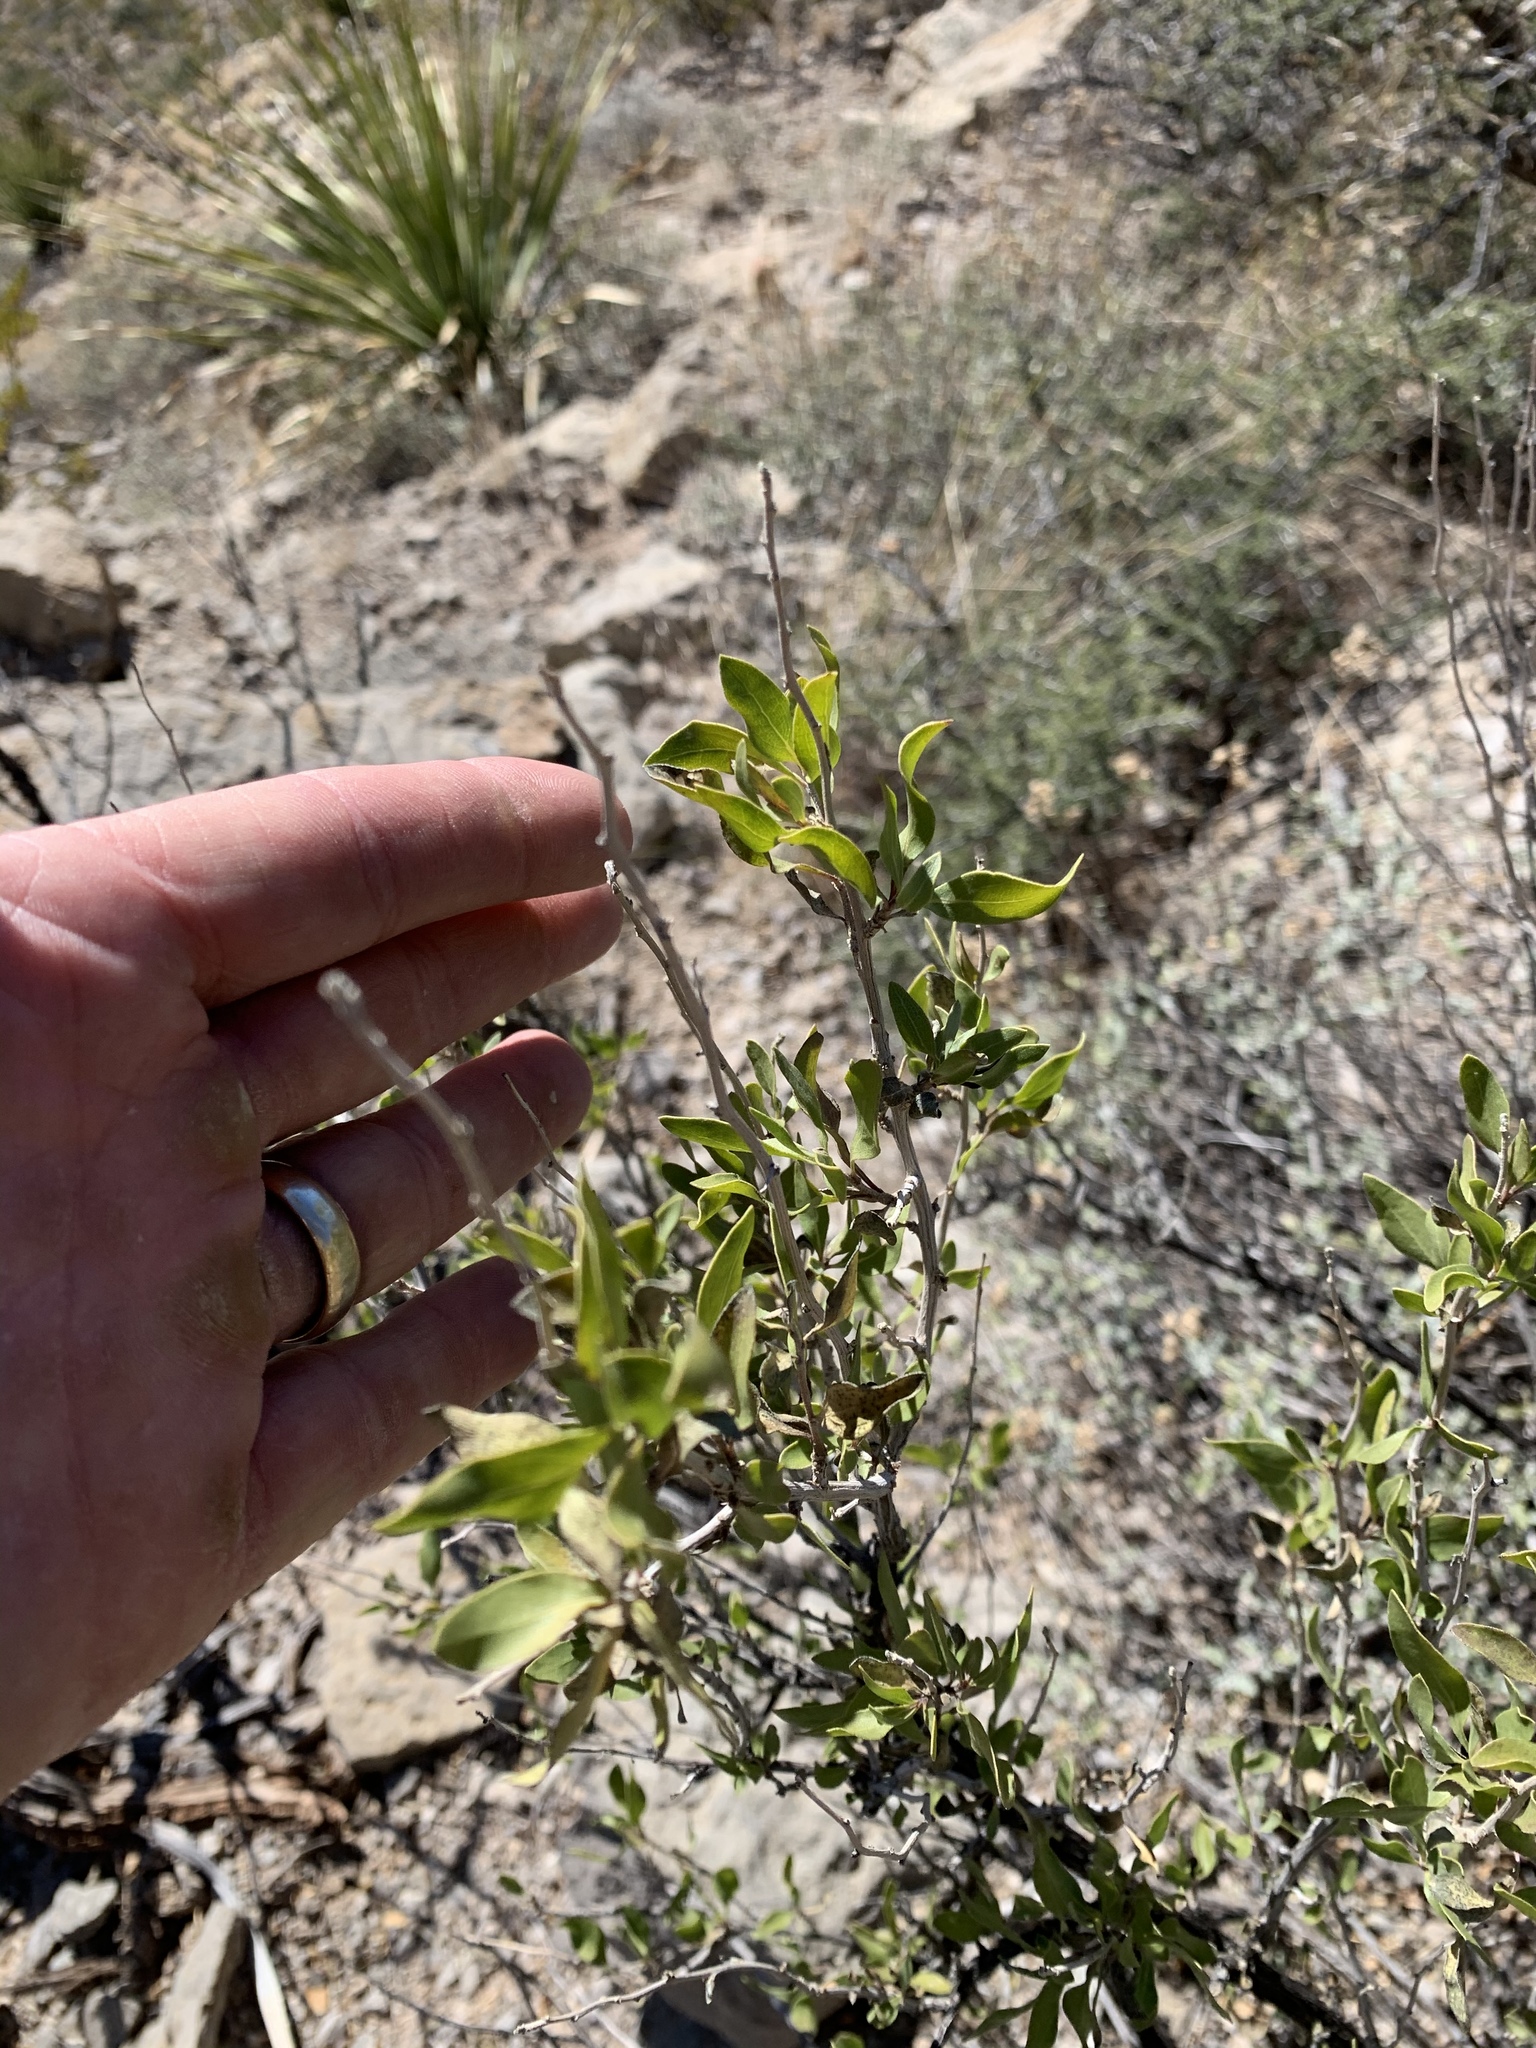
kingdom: Plantae
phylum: Tracheophyta
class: Magnoliopsida
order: Asterales
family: Asteraceae
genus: Flourensia
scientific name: Flourensia cernua
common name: Varnishbush
